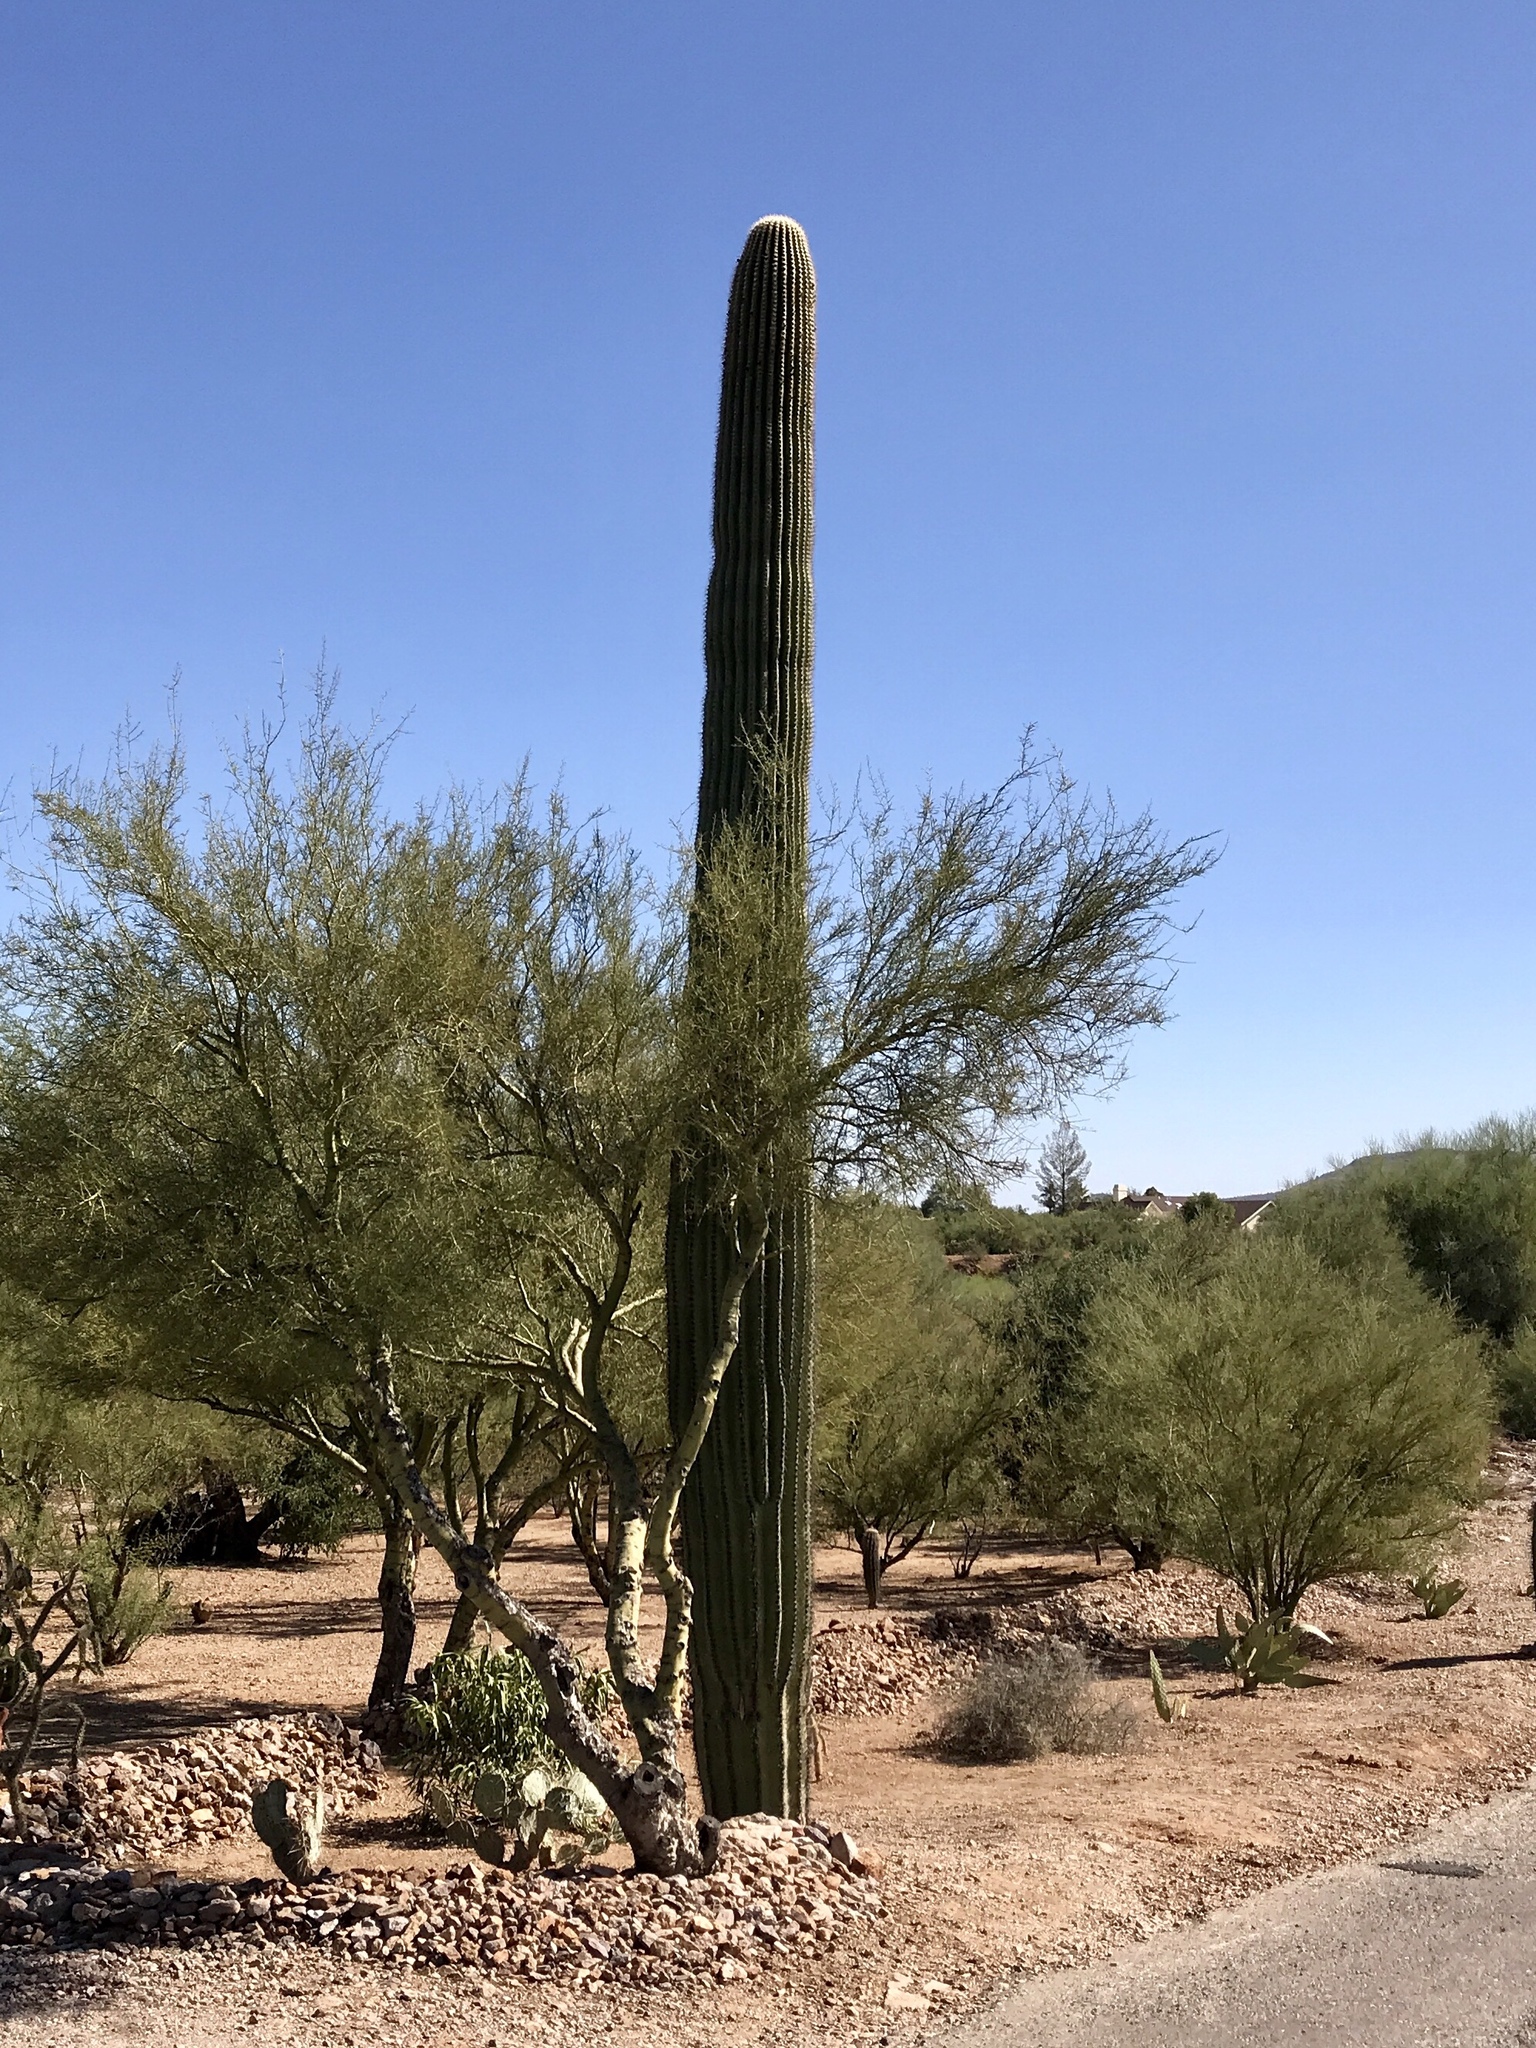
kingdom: Plantae
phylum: Tracheophyta
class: Magnoliopsida
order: Caryophyllales
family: Cactaceae
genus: Carnegiea
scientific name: Carnegiea gigantea
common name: Saguaro
